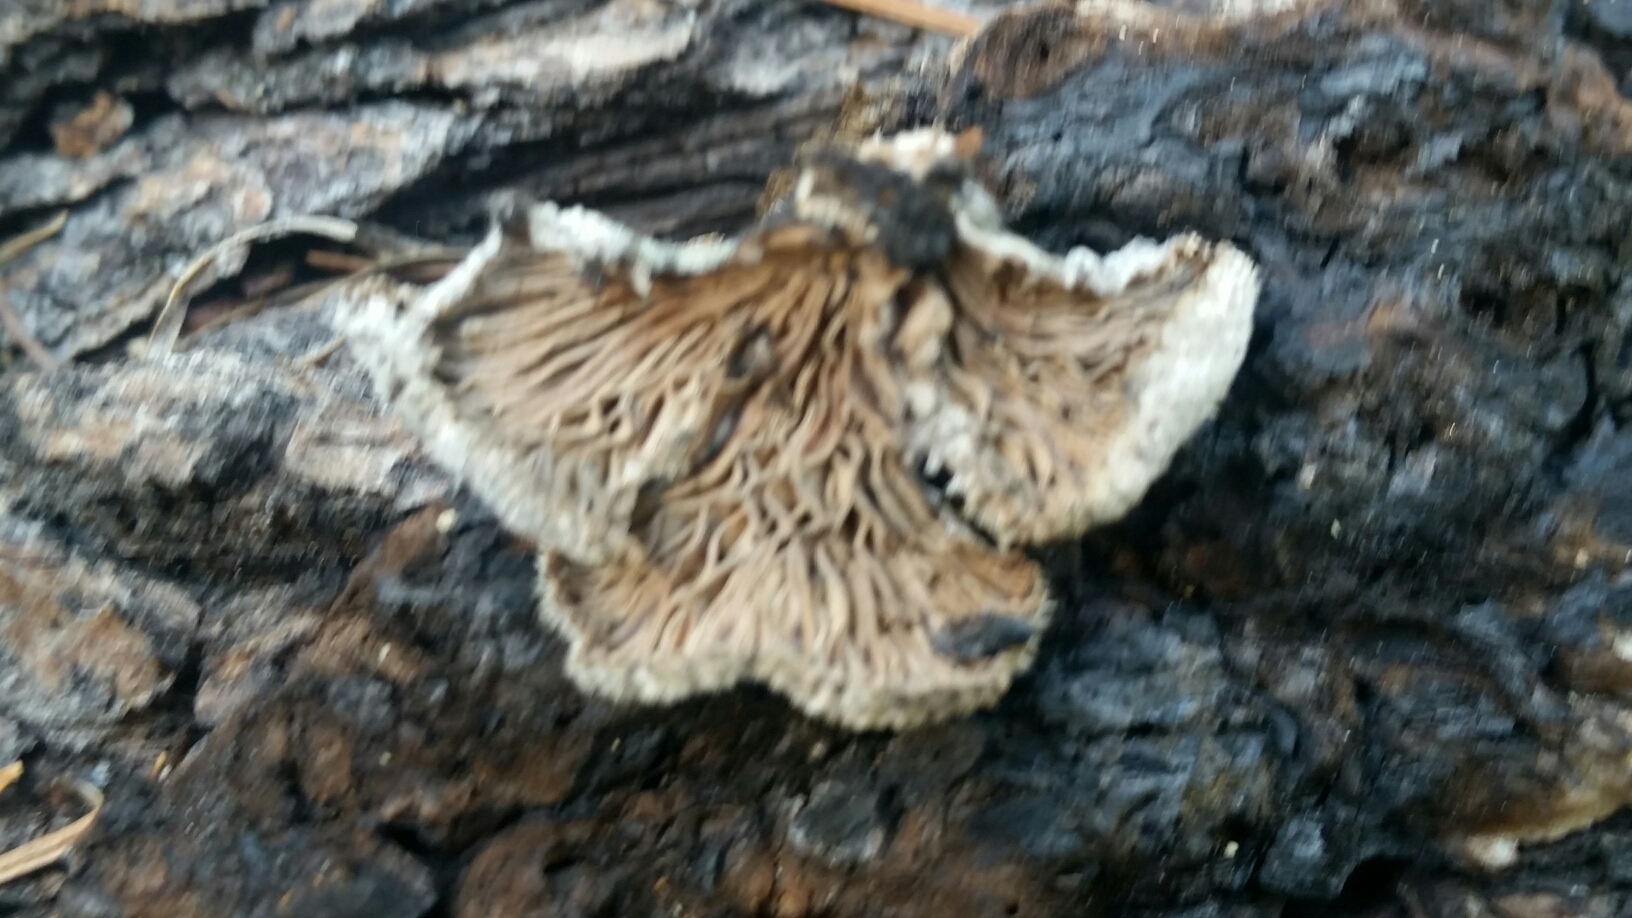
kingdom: Fungi
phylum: Basidiomycota
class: Agaricomycetes
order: Agaricales
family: Schizophyllaceae
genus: Schizophyllum
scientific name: Schizophyllum commune
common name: Common porecrust
